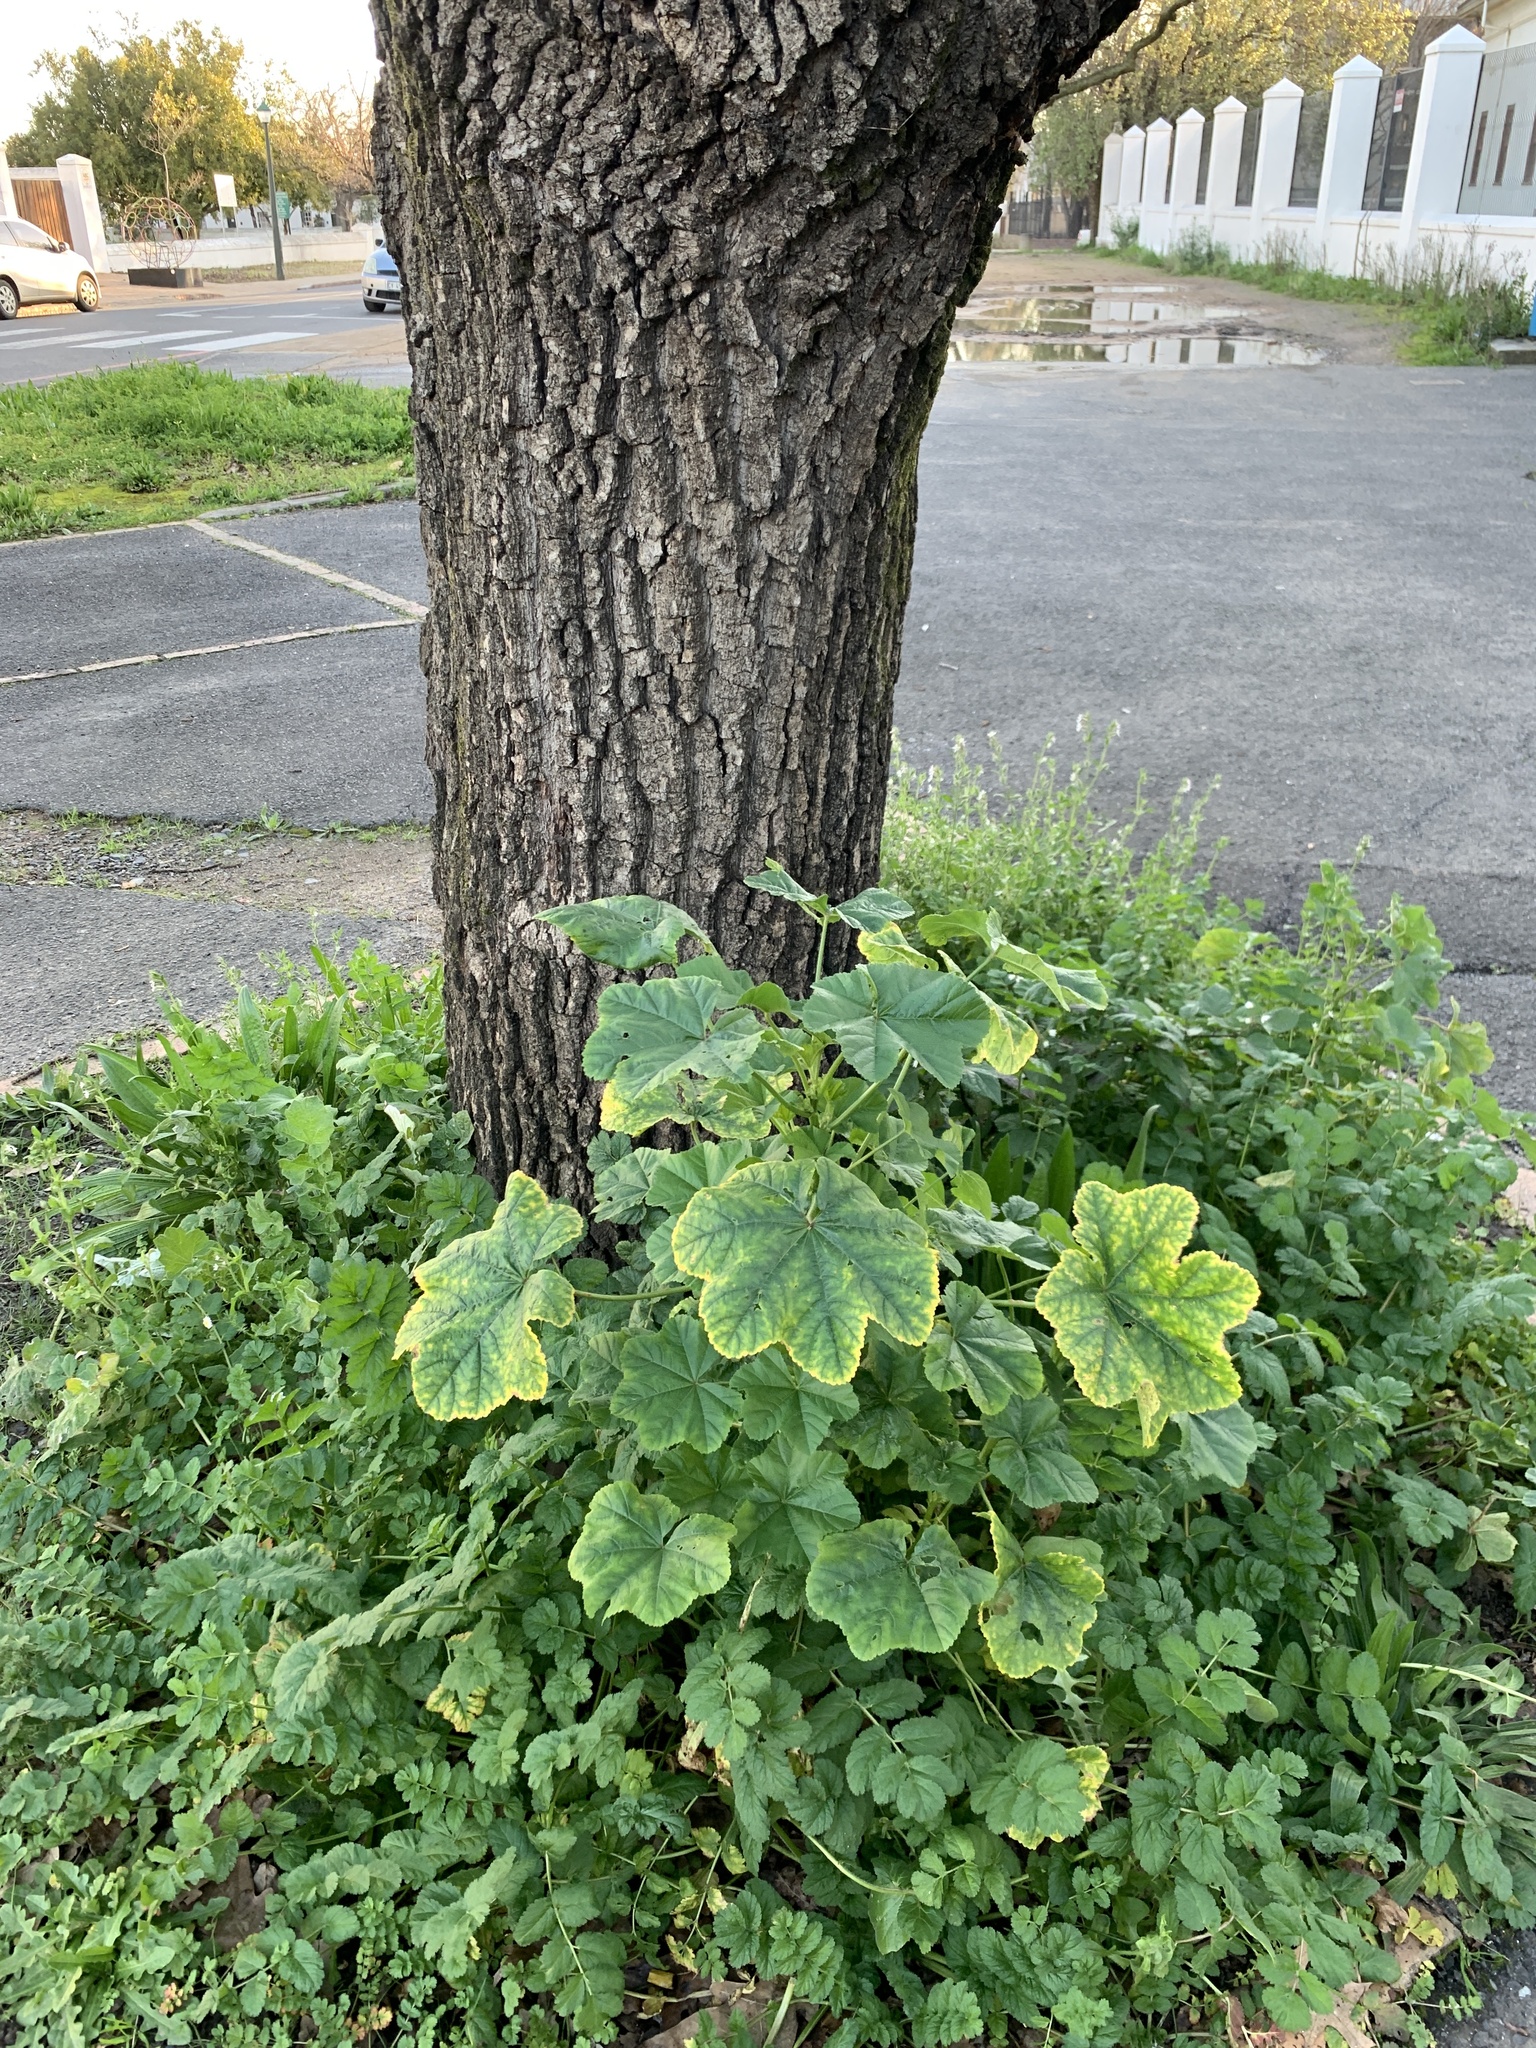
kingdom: Plantae
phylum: Tracheophyta
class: Magnoliopsida
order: Malvales
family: Malvaceae
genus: Malva
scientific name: Malva parviflora
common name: Least mallow
